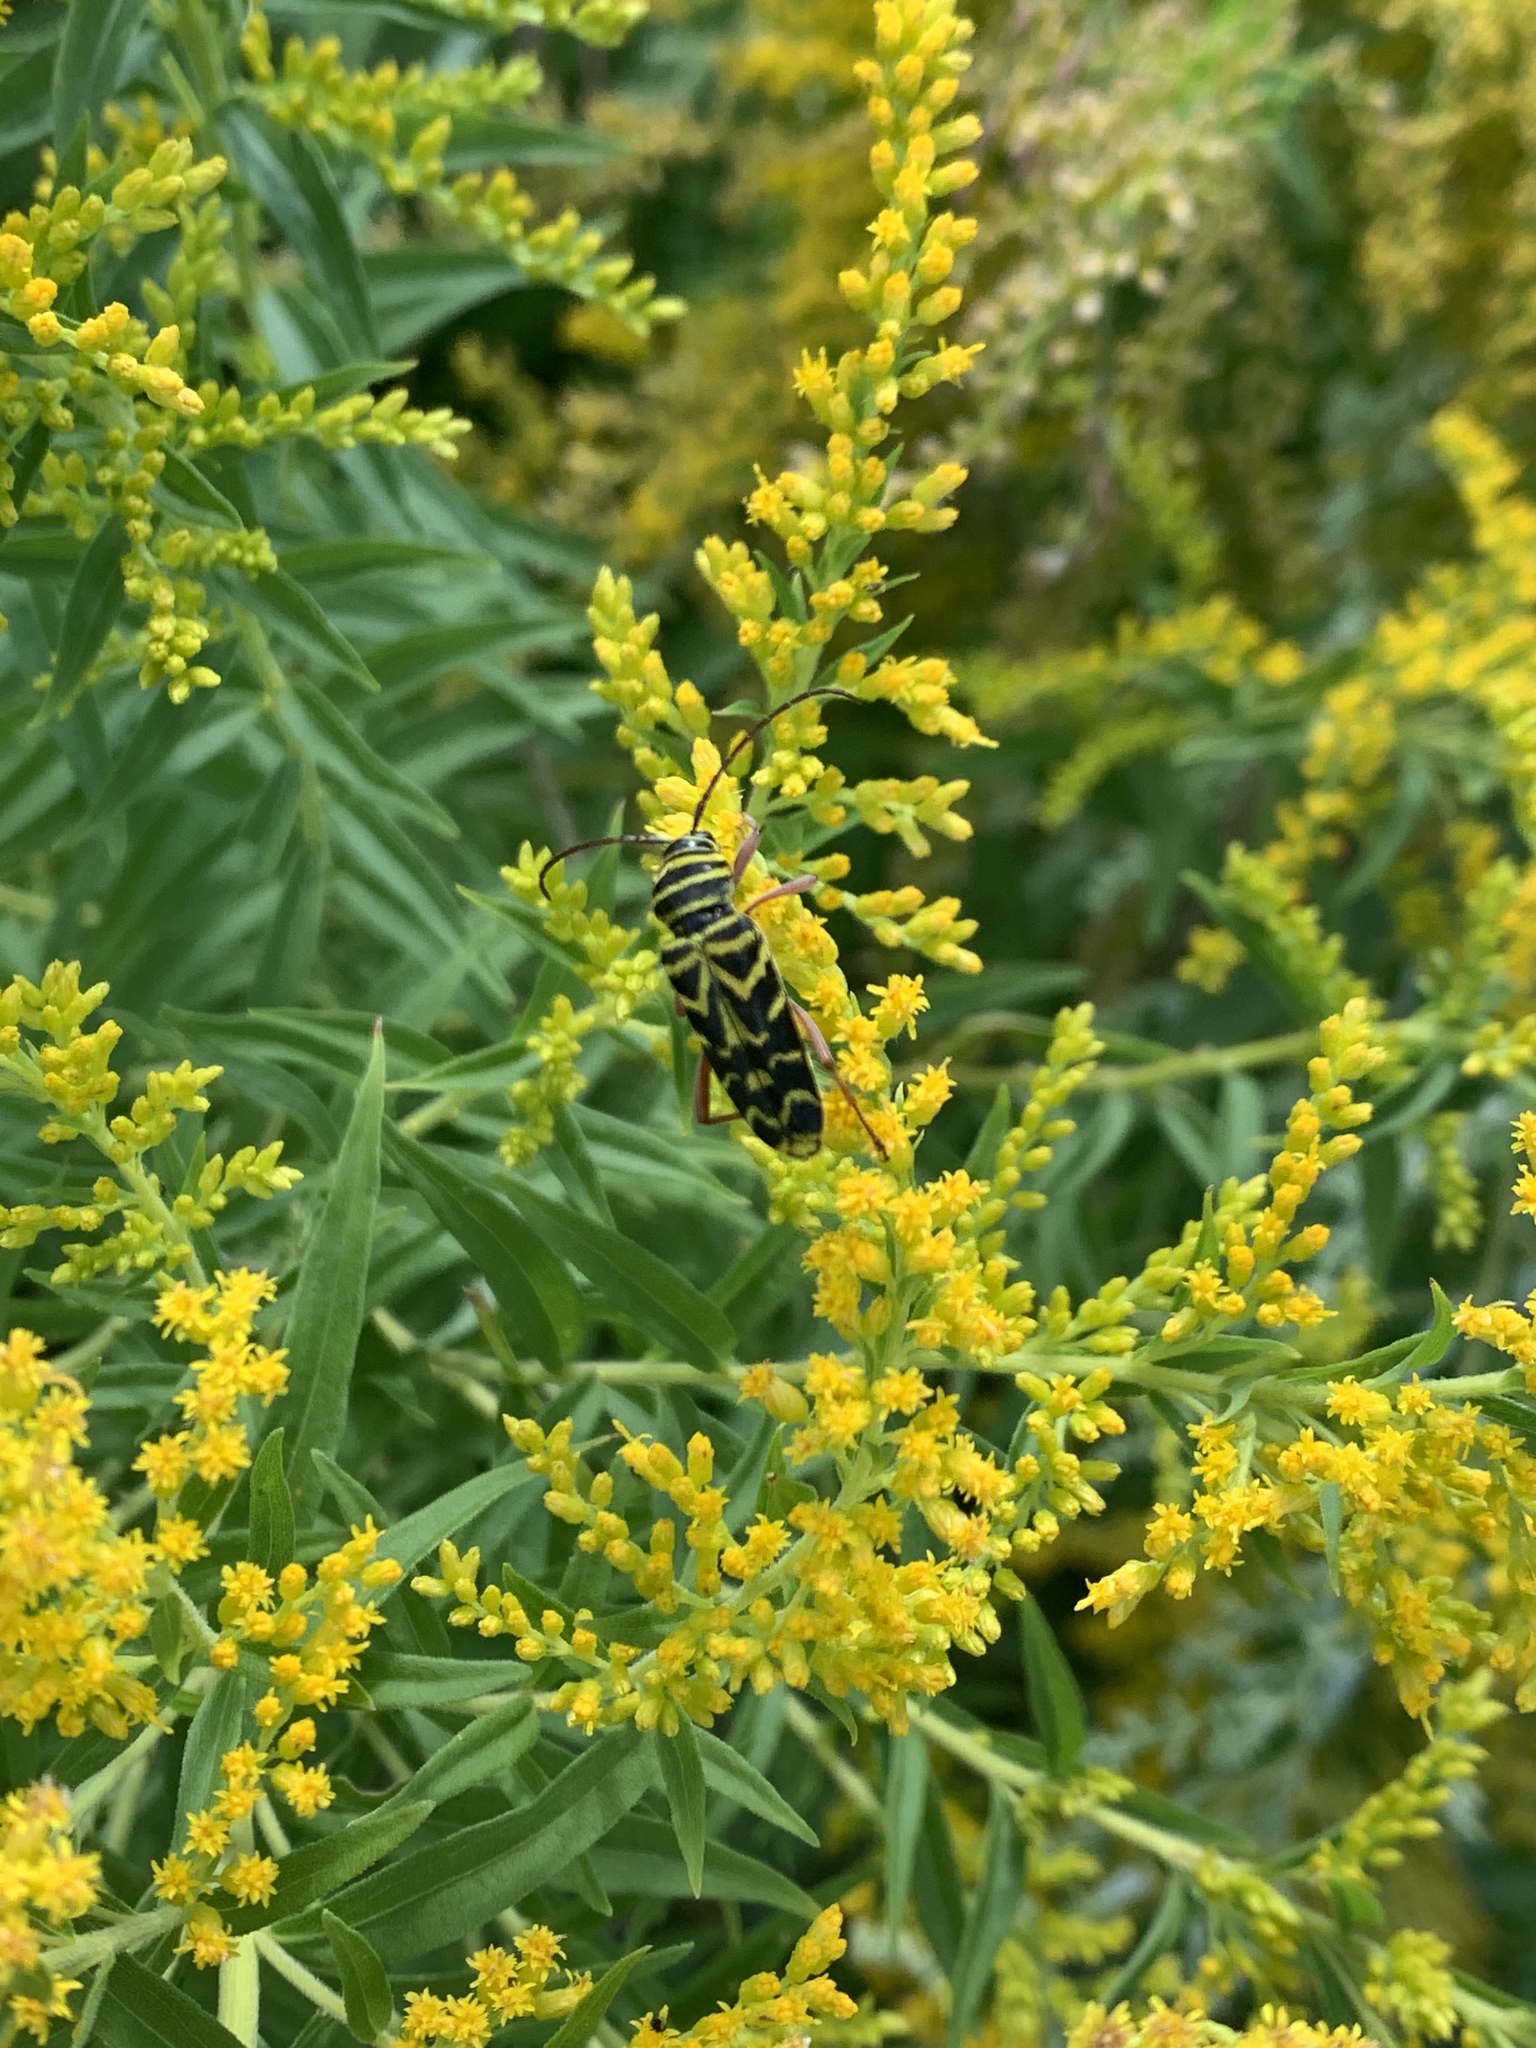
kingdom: Animalia
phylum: Arthropoda
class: Insecta
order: Coleoptera
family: Cerambycidae
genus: Megacyllene
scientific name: Megacyllene robiniae
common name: Locust borer
